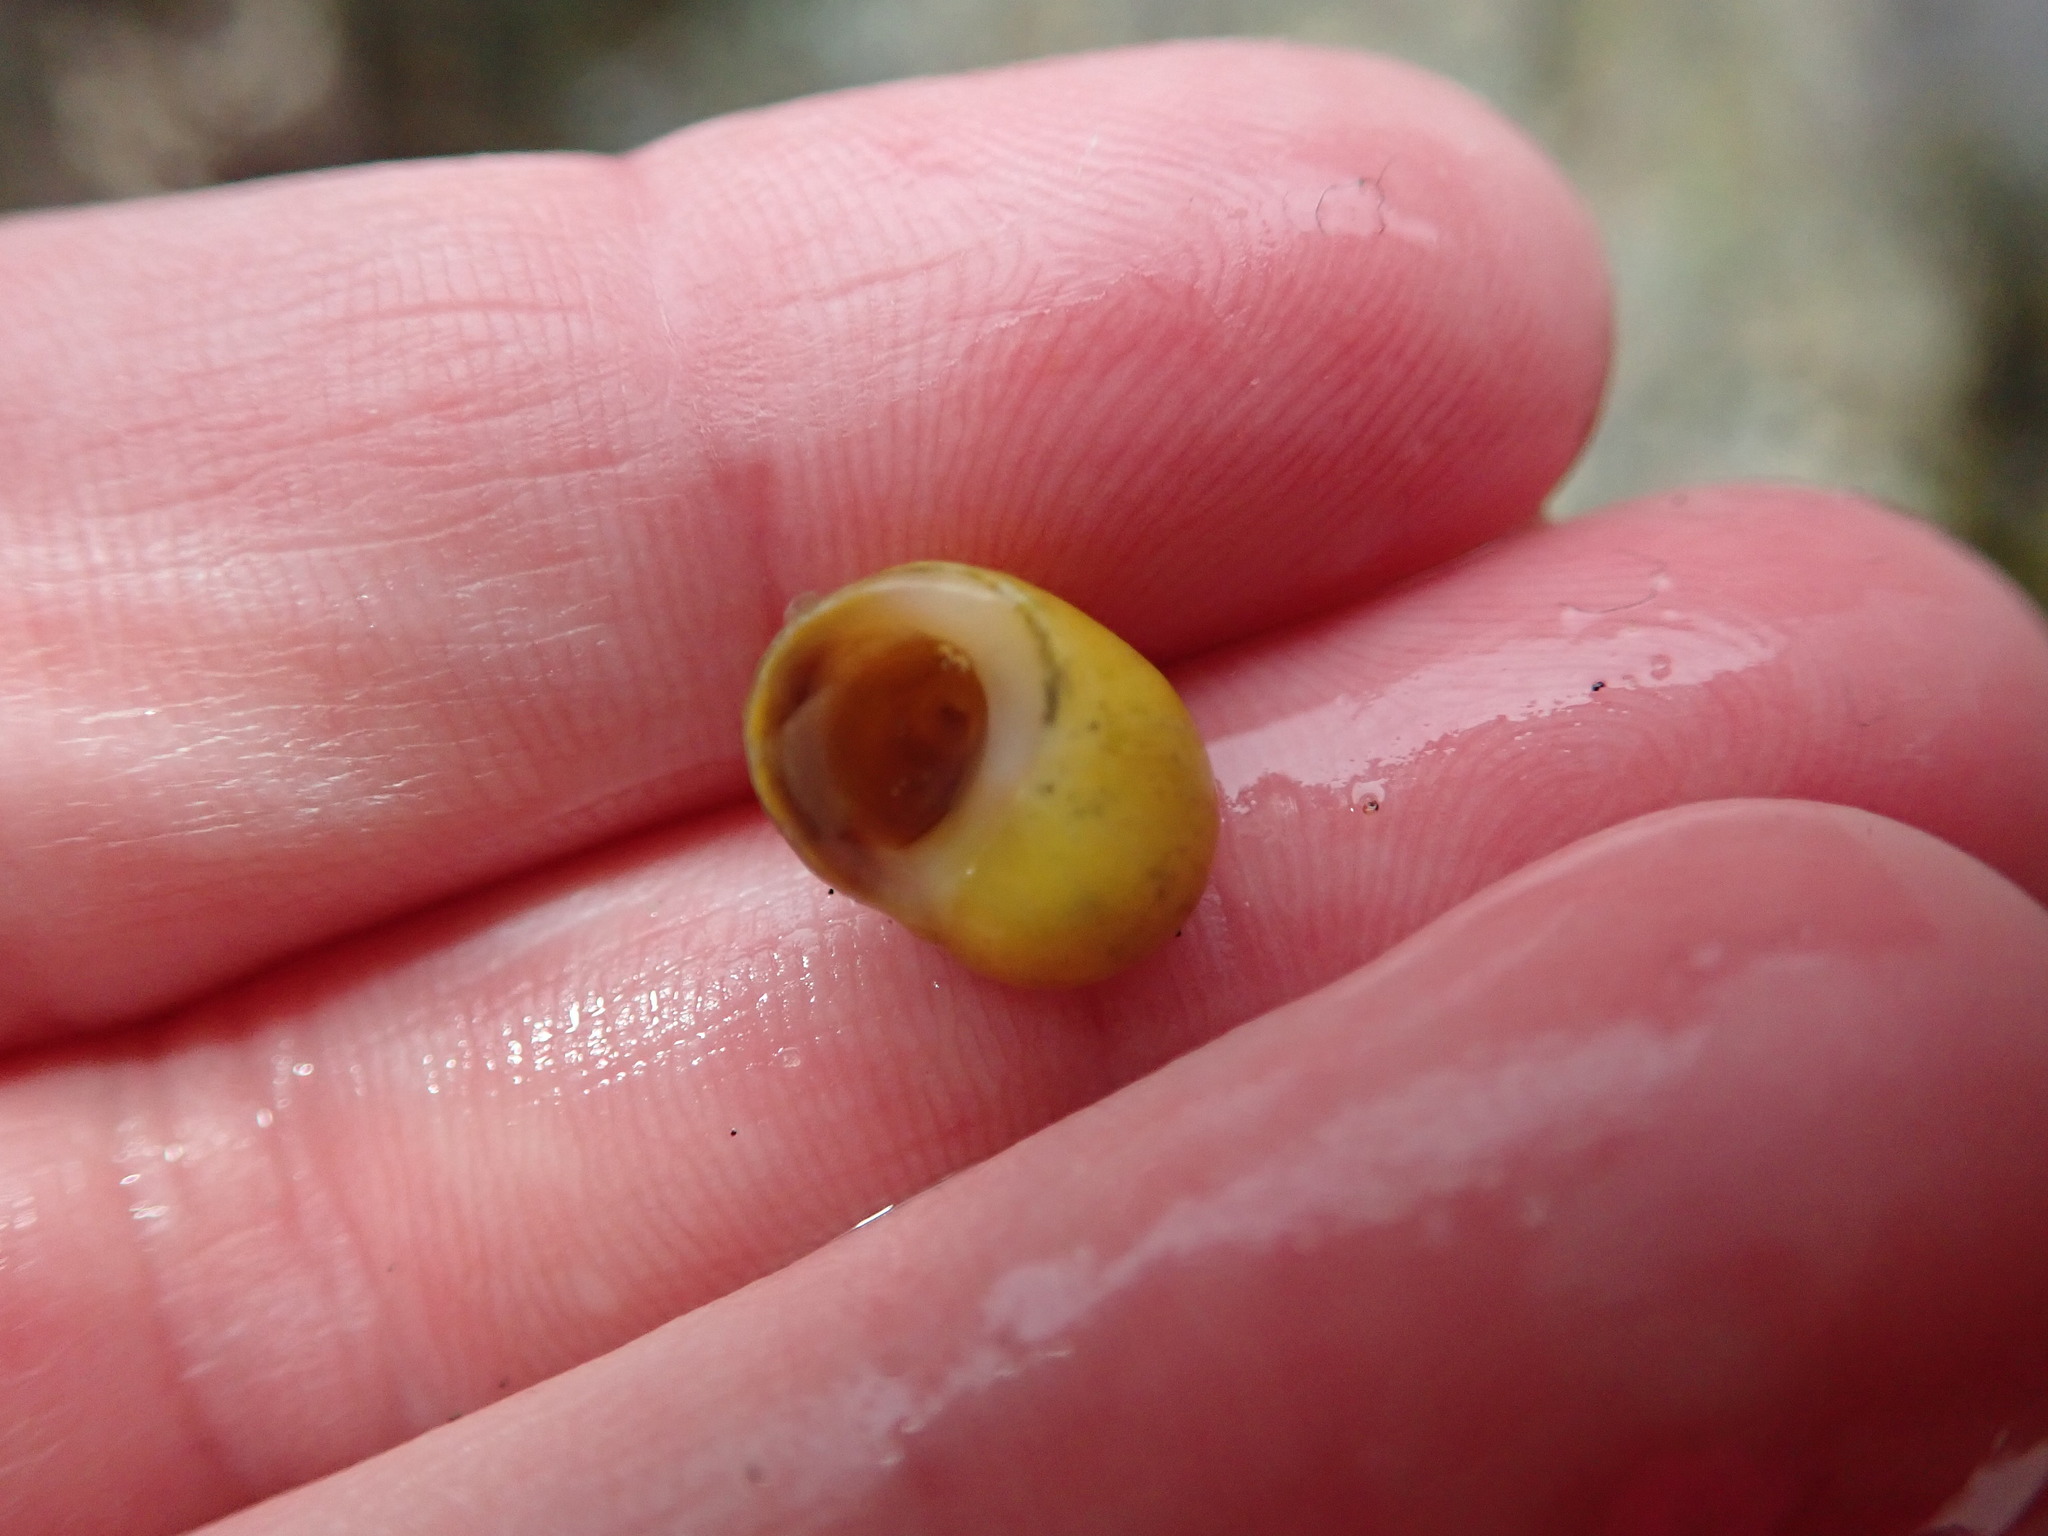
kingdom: Animalia
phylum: Mollusca
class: Gastropoda
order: Littorinimorpha
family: Littorinidae
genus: Littorina
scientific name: Littorina obtusata
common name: Flat periwinkle
